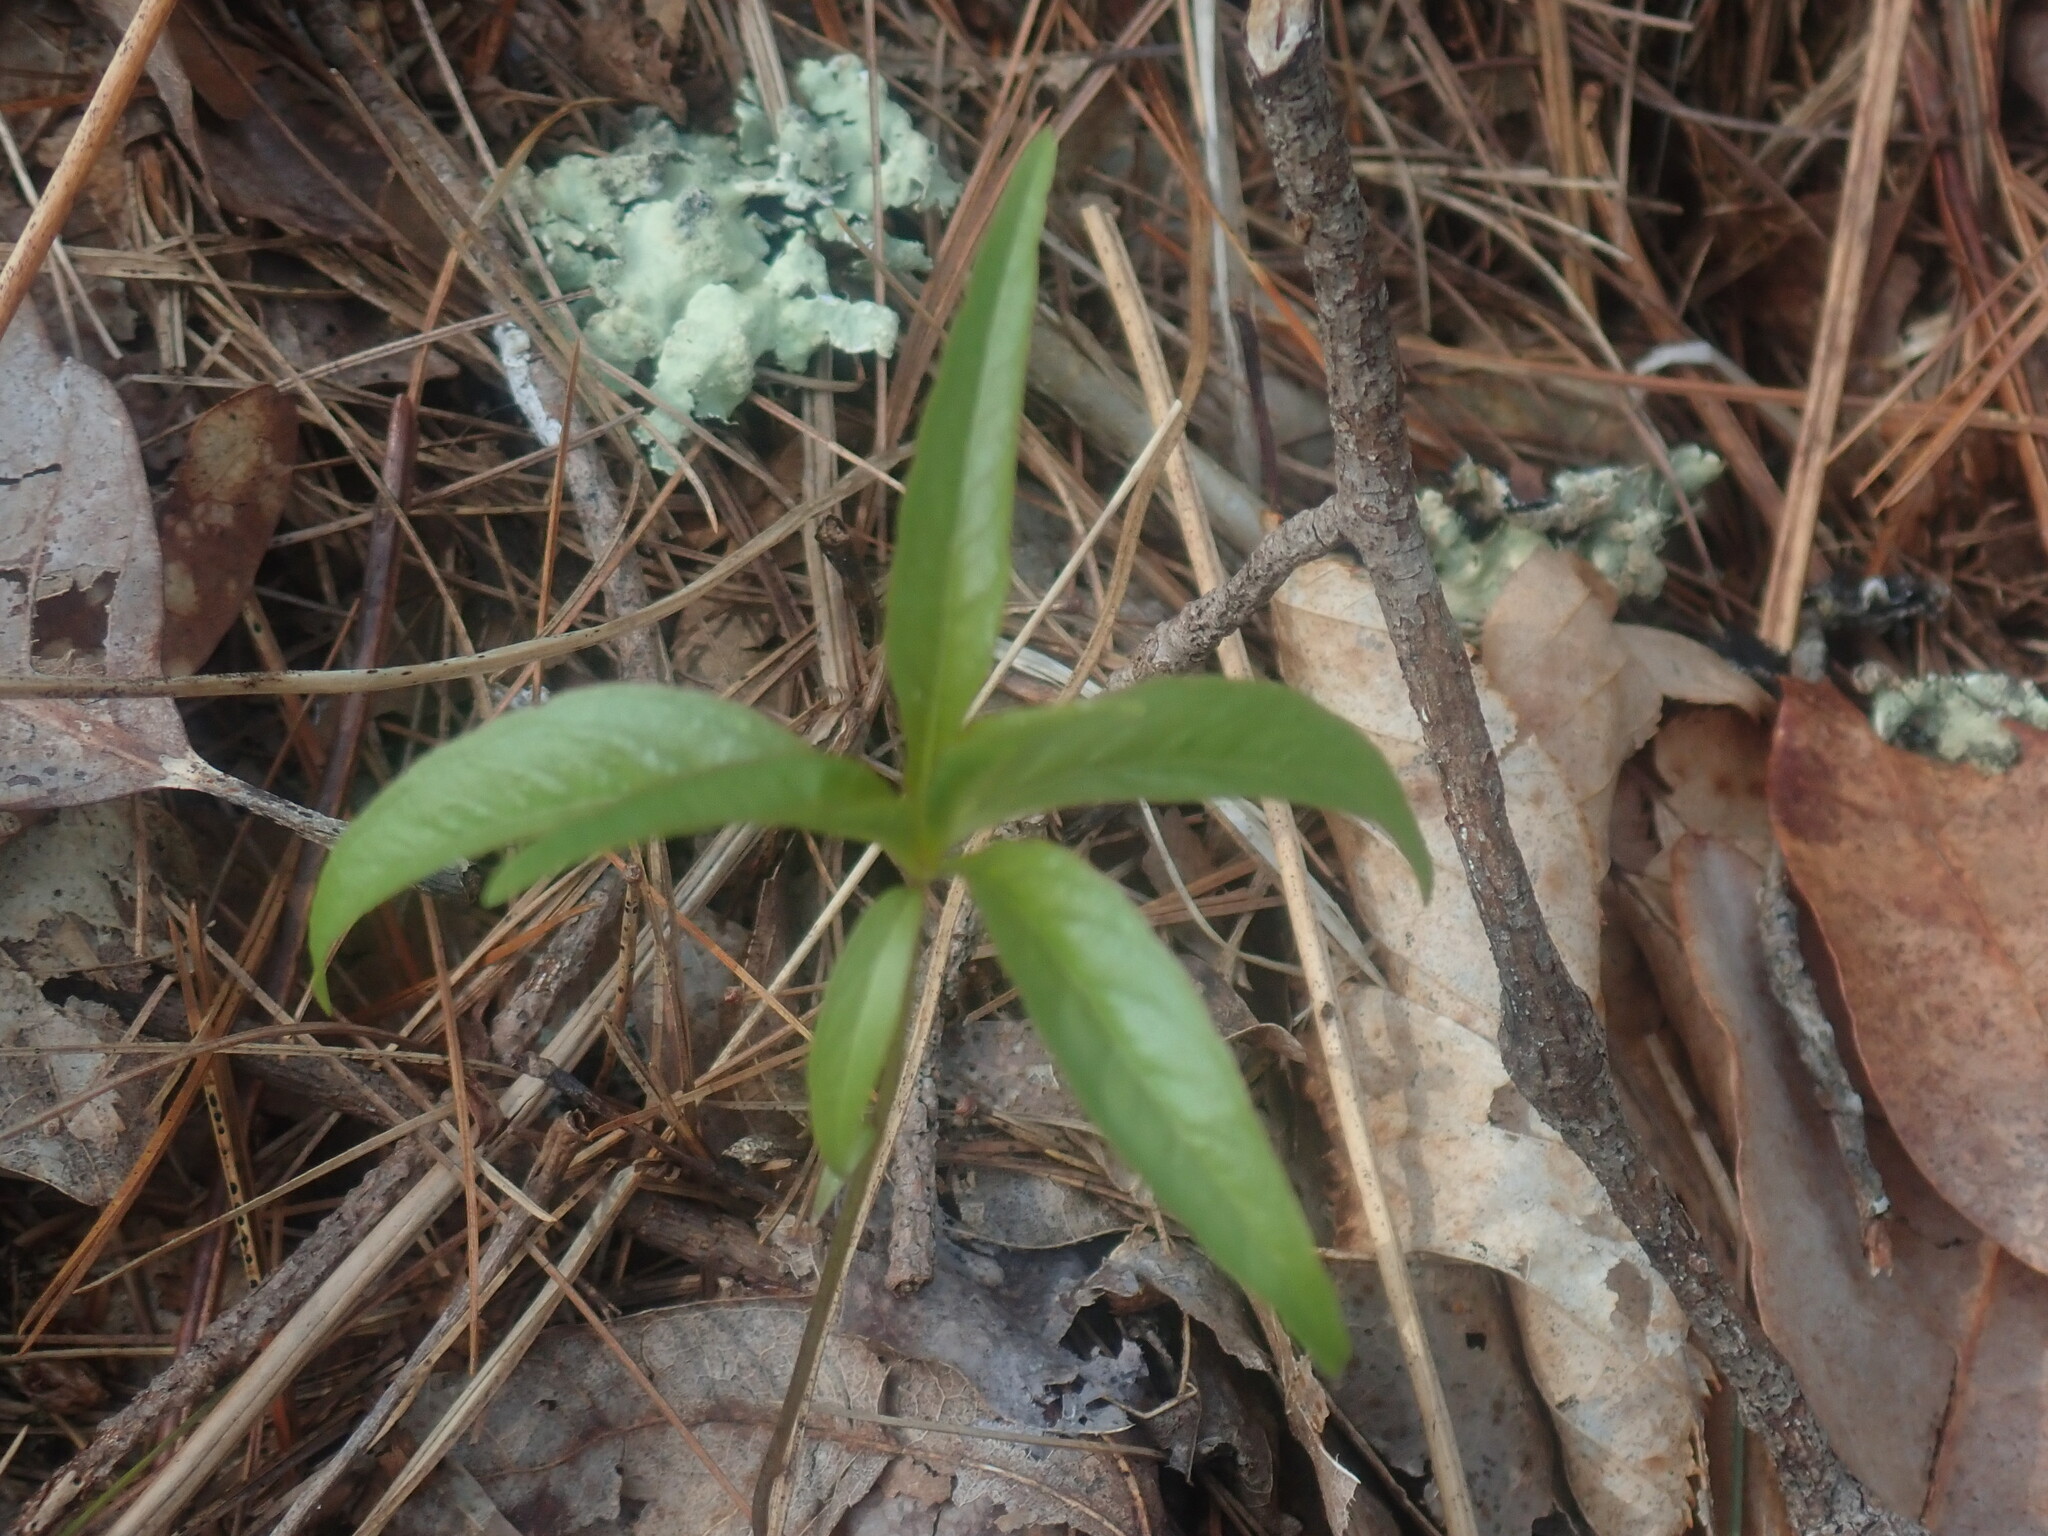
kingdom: Plantae
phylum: Tracheophyta
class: Magnoliopsida
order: Ericales
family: Primulaceae
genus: Lysimachia
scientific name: Lysimachia borealis
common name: American starflower
